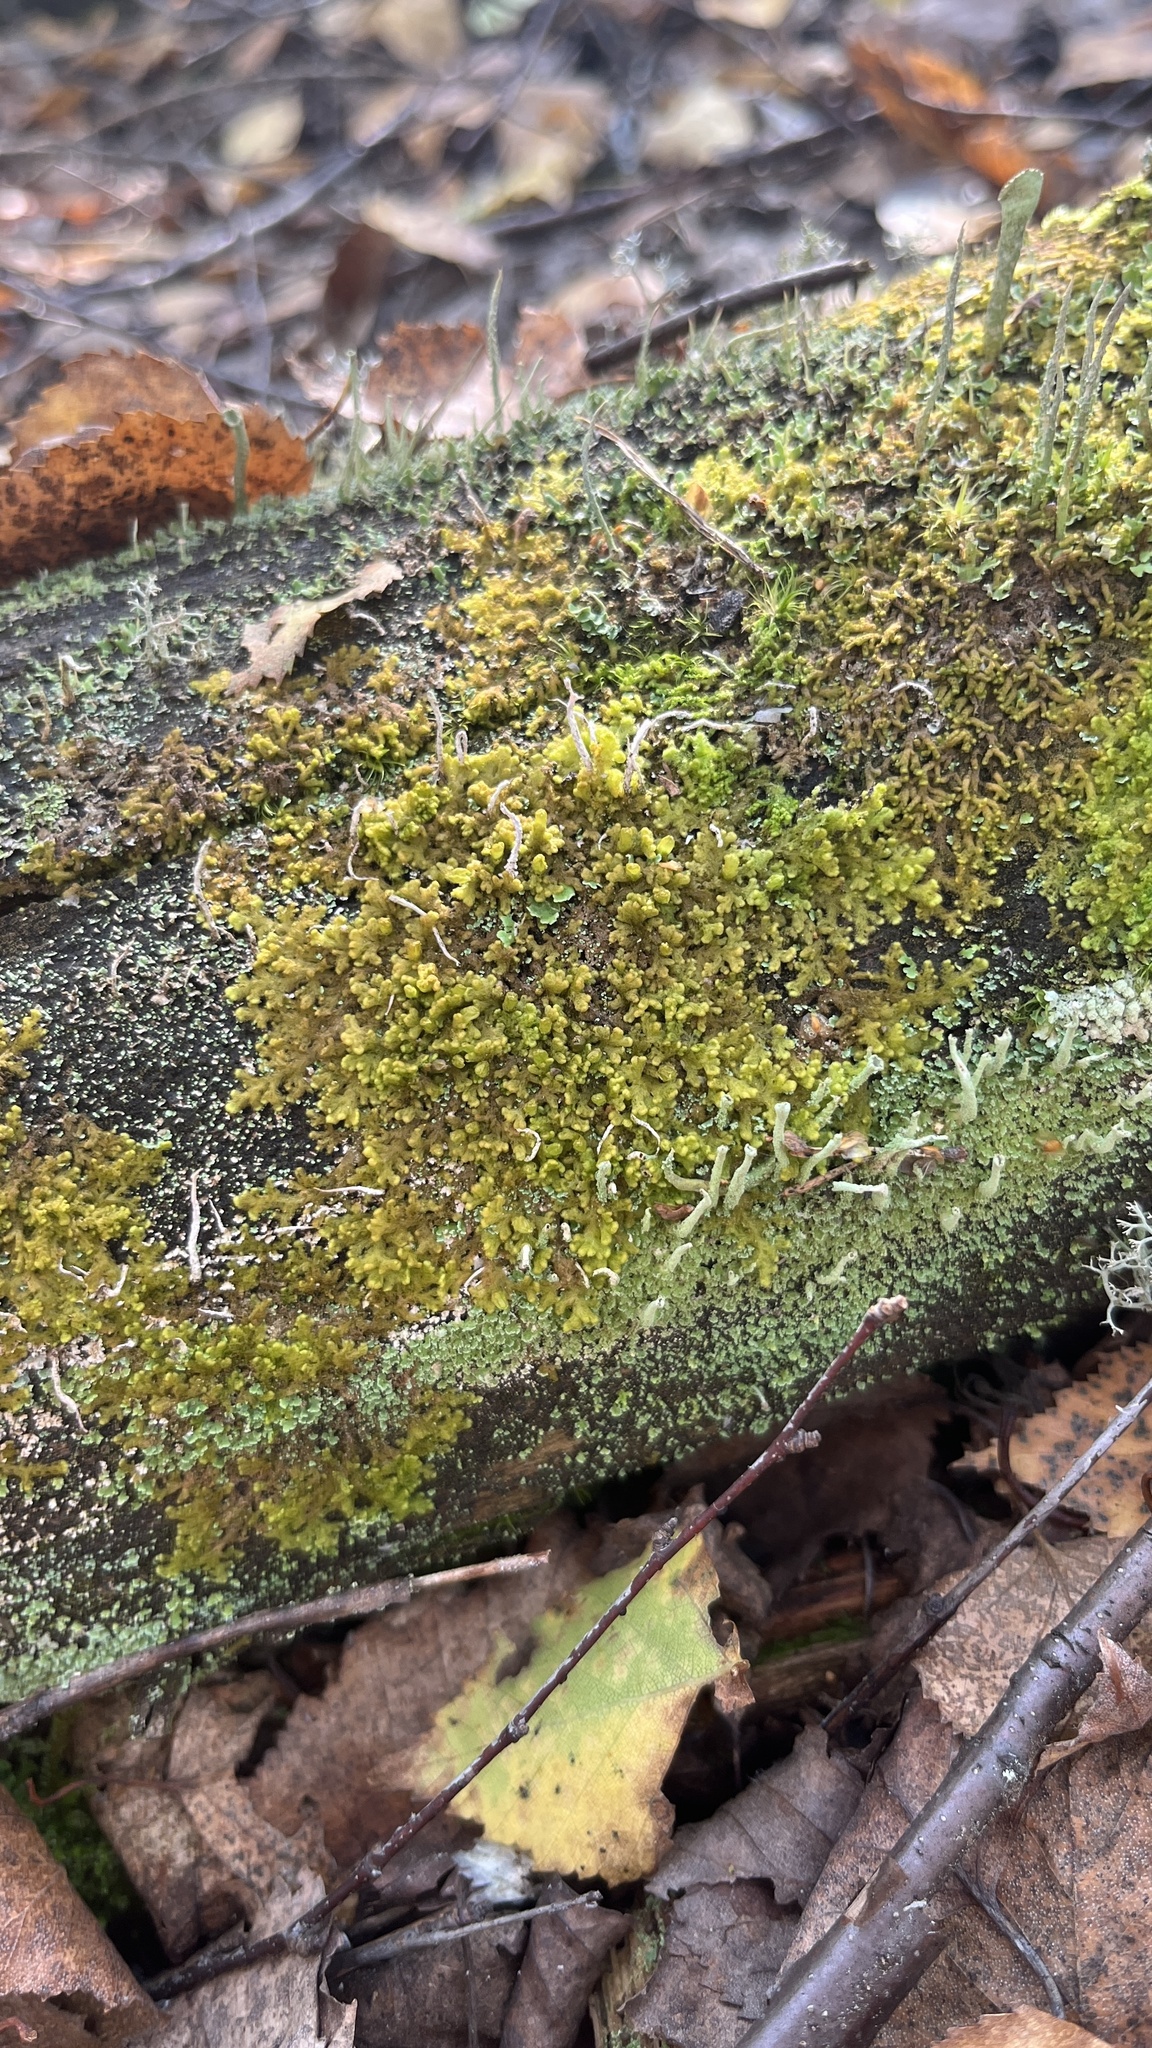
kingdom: Plantae
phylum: Marchantiophyta
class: Jungermanniopsida
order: Ptilidiales
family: Ptilidiaceae
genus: Ptilidium
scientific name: Ptilidium pulcherrimum
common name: Tree fringewort
